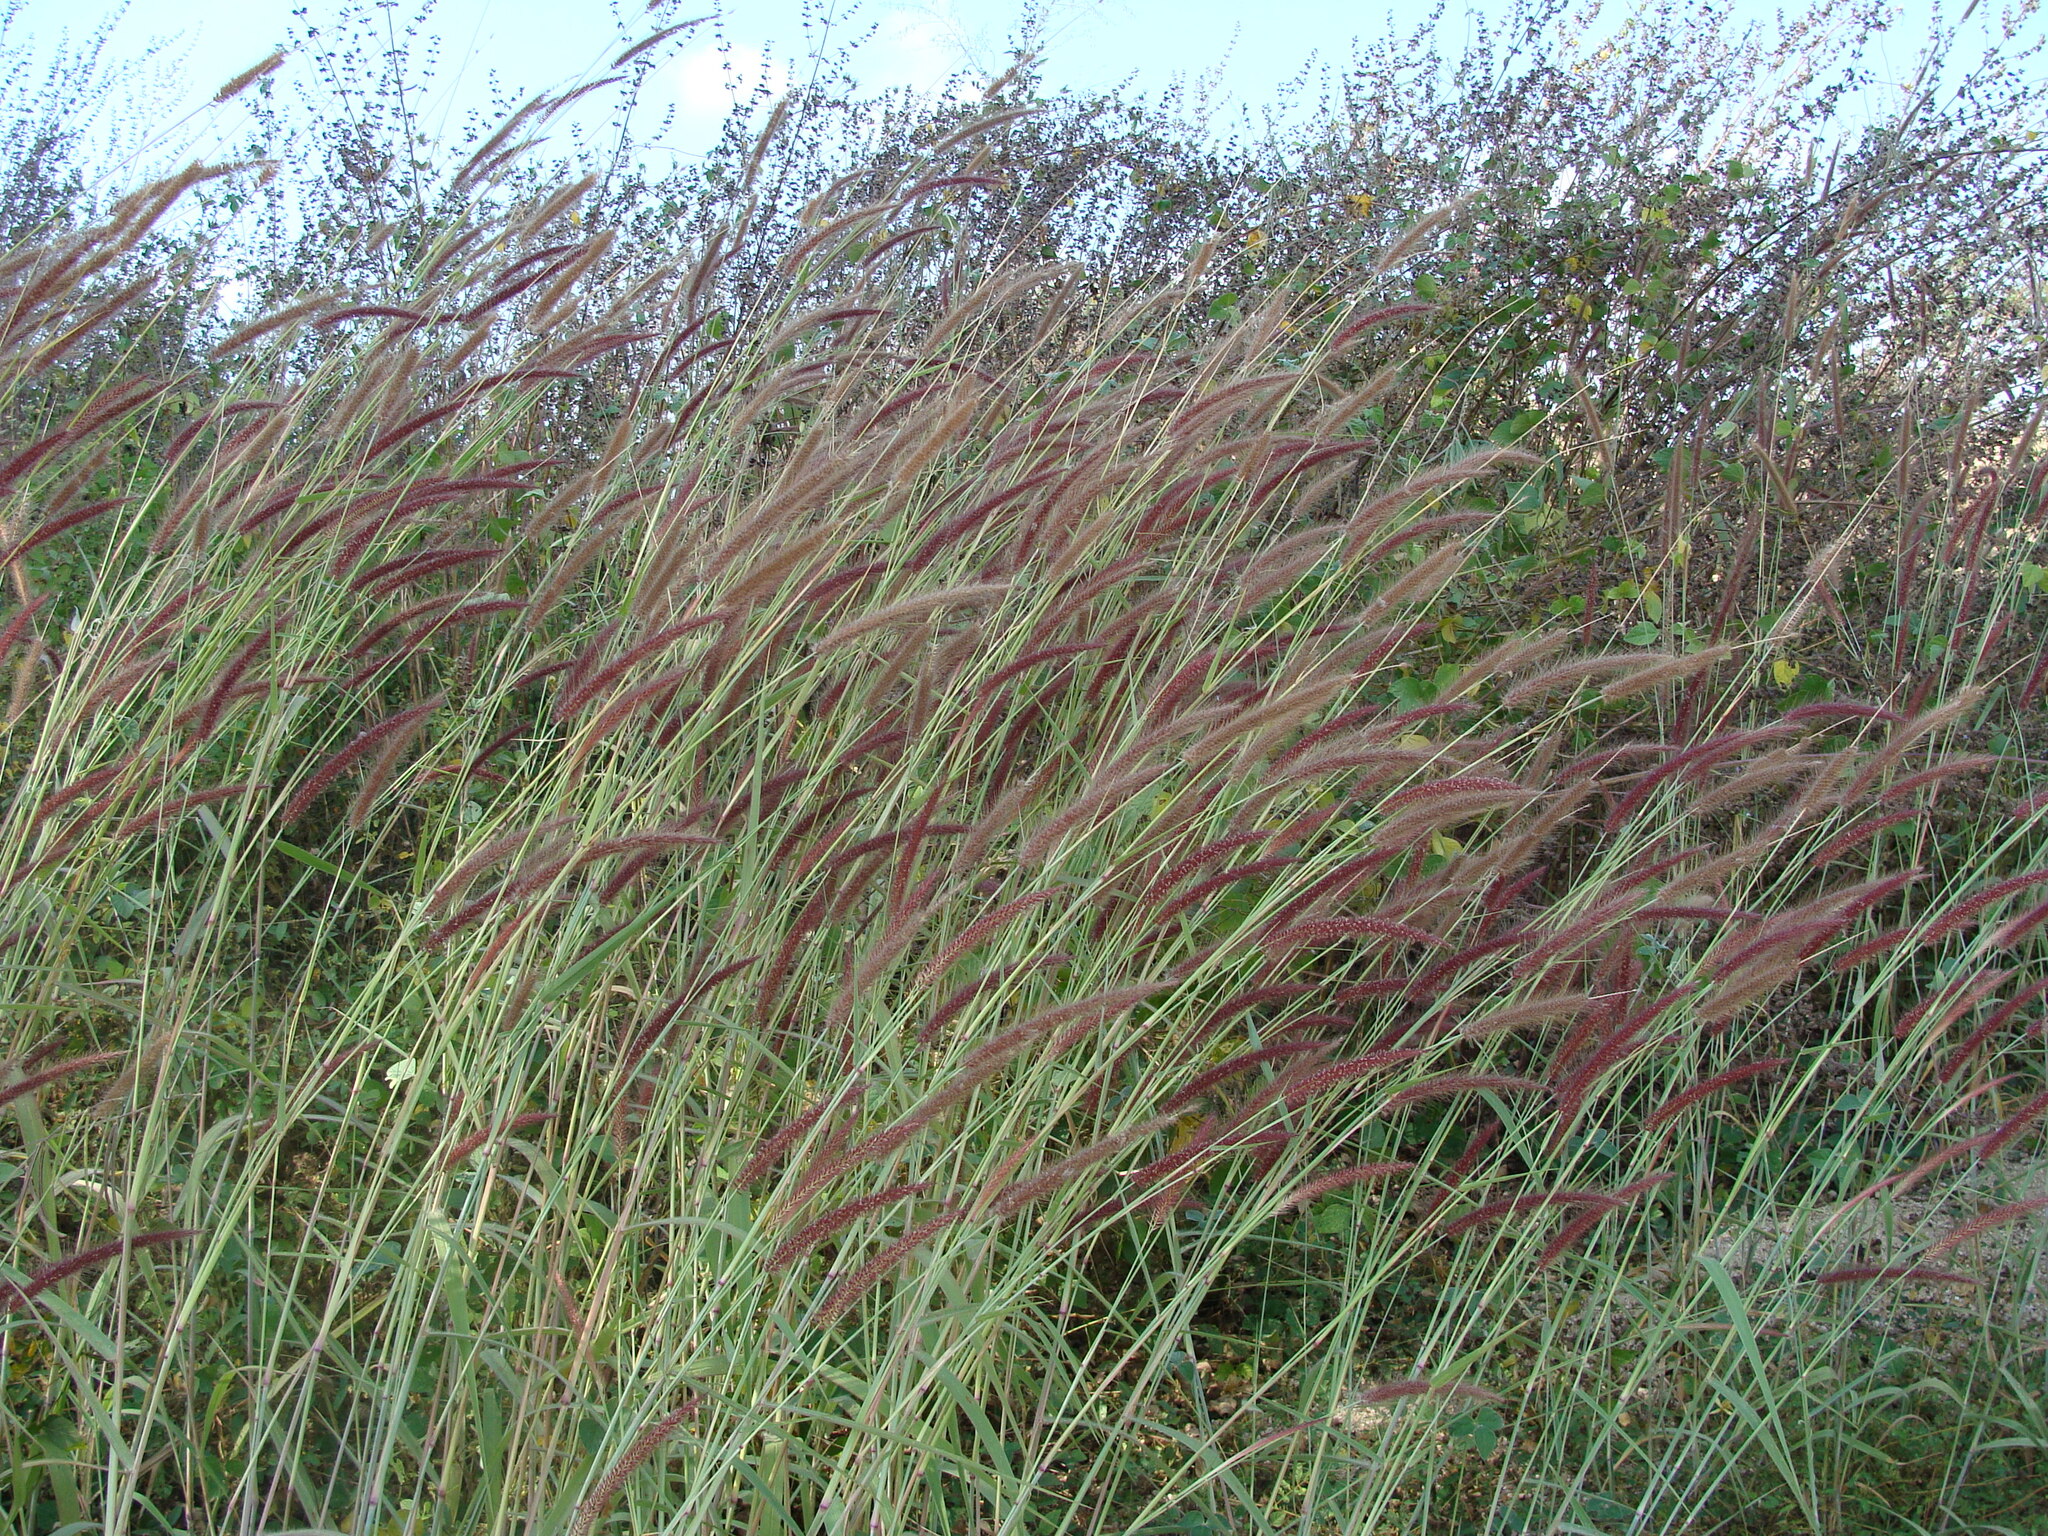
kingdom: Plantae
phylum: Tracheophyta
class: Liliopsida
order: Poales
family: Poaceae
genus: Cenchrus
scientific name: Cenchrus setosus
